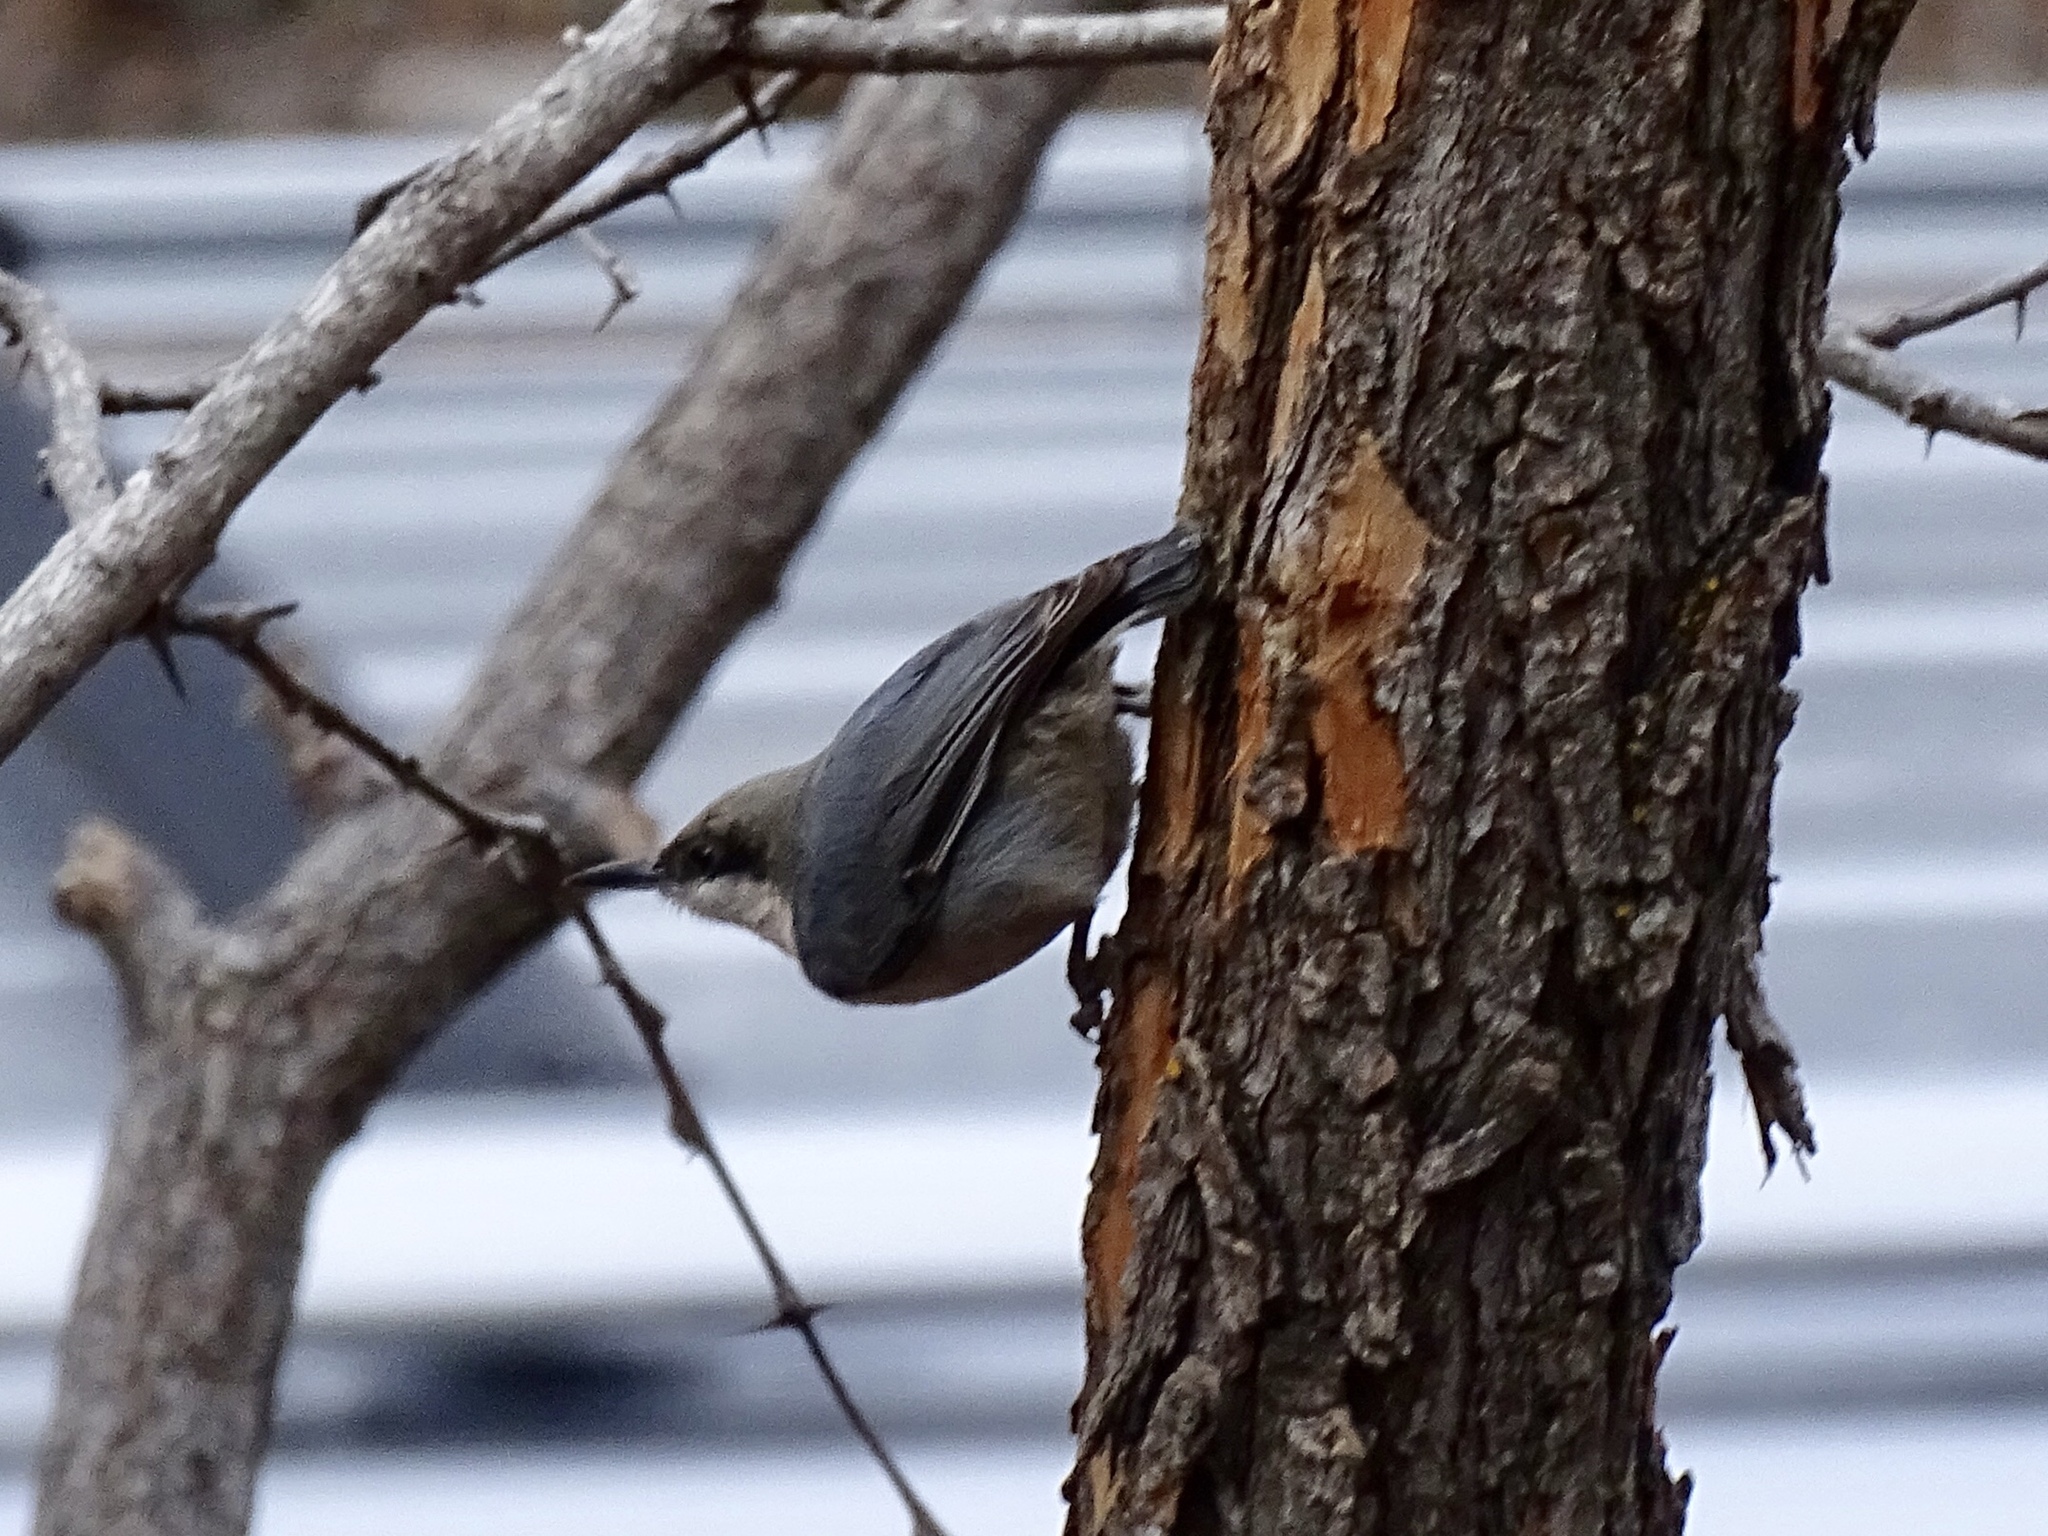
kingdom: Animalia
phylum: Chordata
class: Aves
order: Passeriformes
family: Sittidae
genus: Sitta
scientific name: Sitta pygmaea
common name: Pygmy nuthatch
